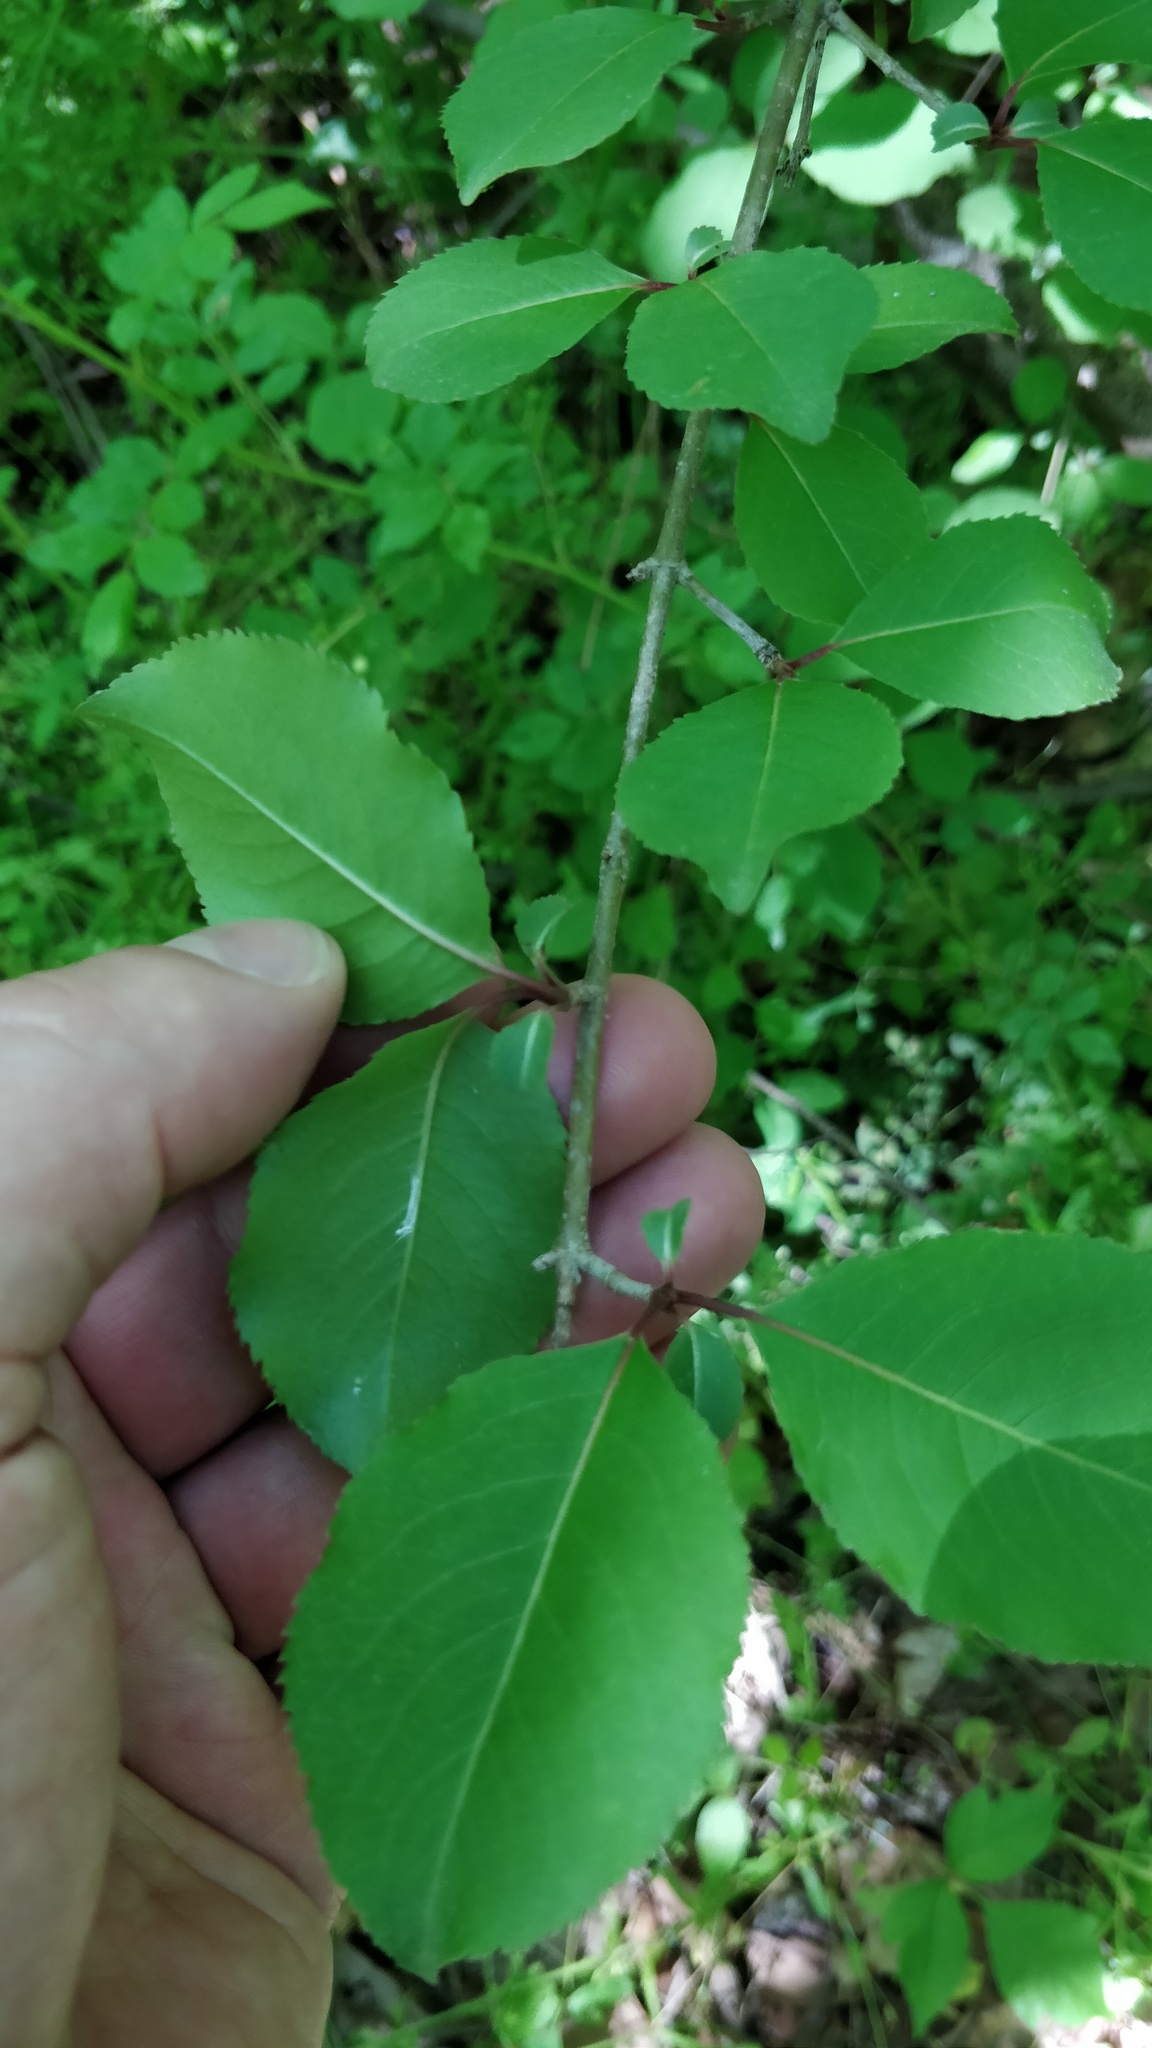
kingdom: Plantae
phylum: Tracheophyta
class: Magnoliopsida
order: Dipsacales
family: Viburnaceae
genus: Viburnum
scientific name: Viburnum prunifolium
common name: Black haw
